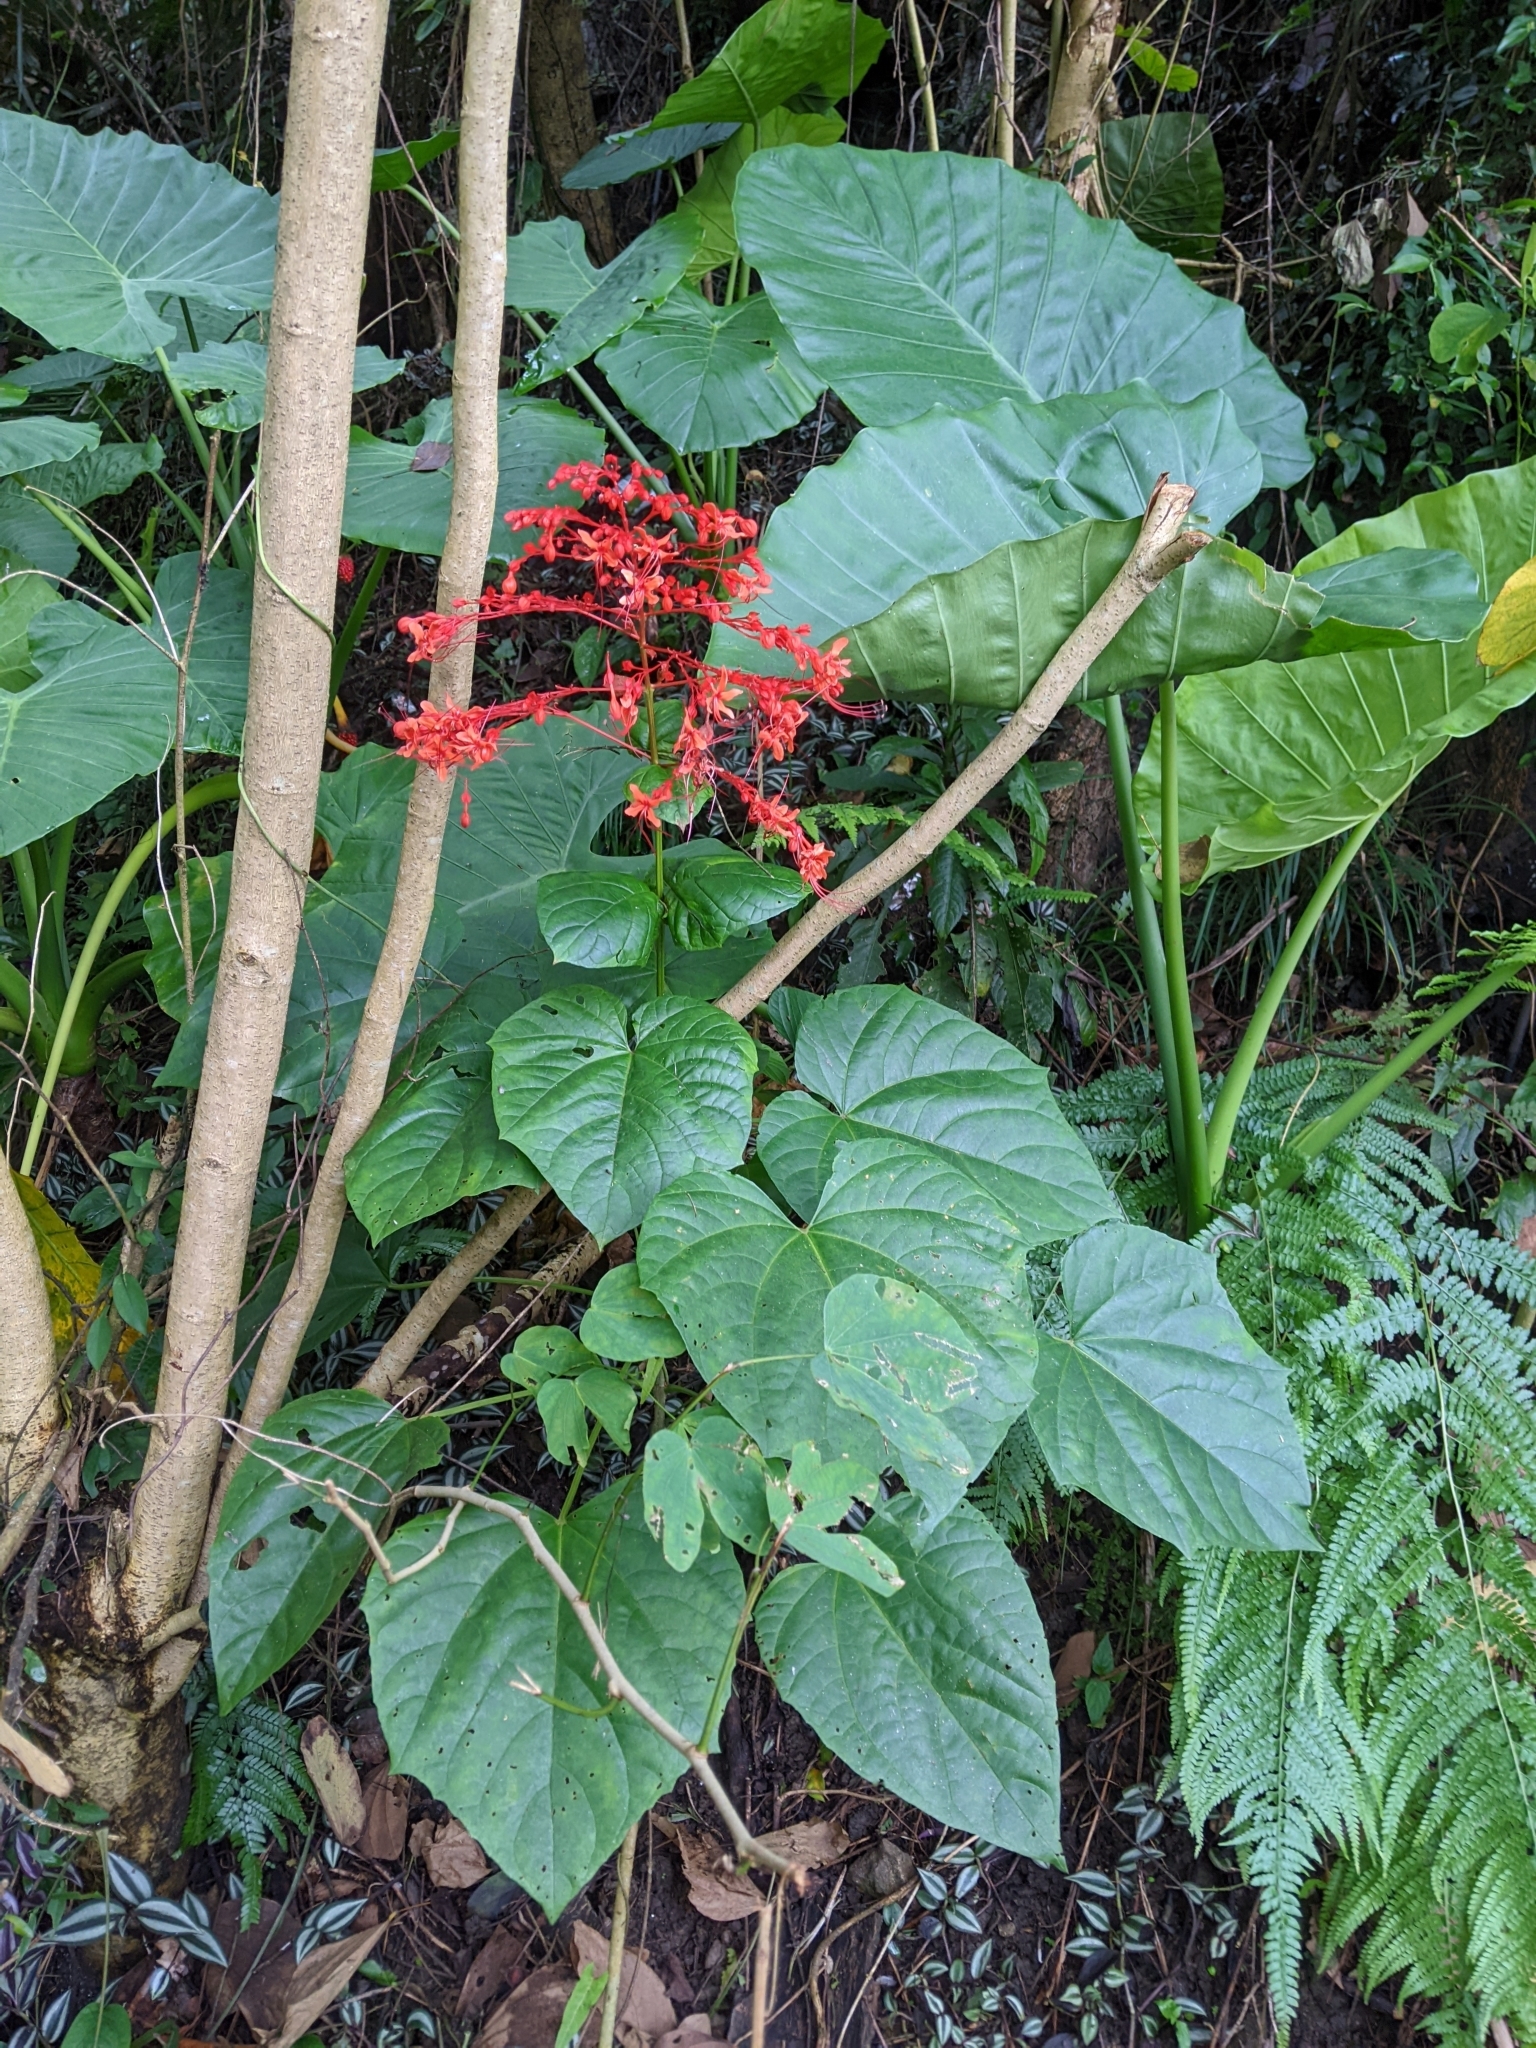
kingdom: Plantae
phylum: Tracheophyta
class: Magnoliopsida
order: Lamiales
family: Lamiaceae
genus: Clerodendrum
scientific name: Clerodendrum japonicum
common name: Japanese glorybower
